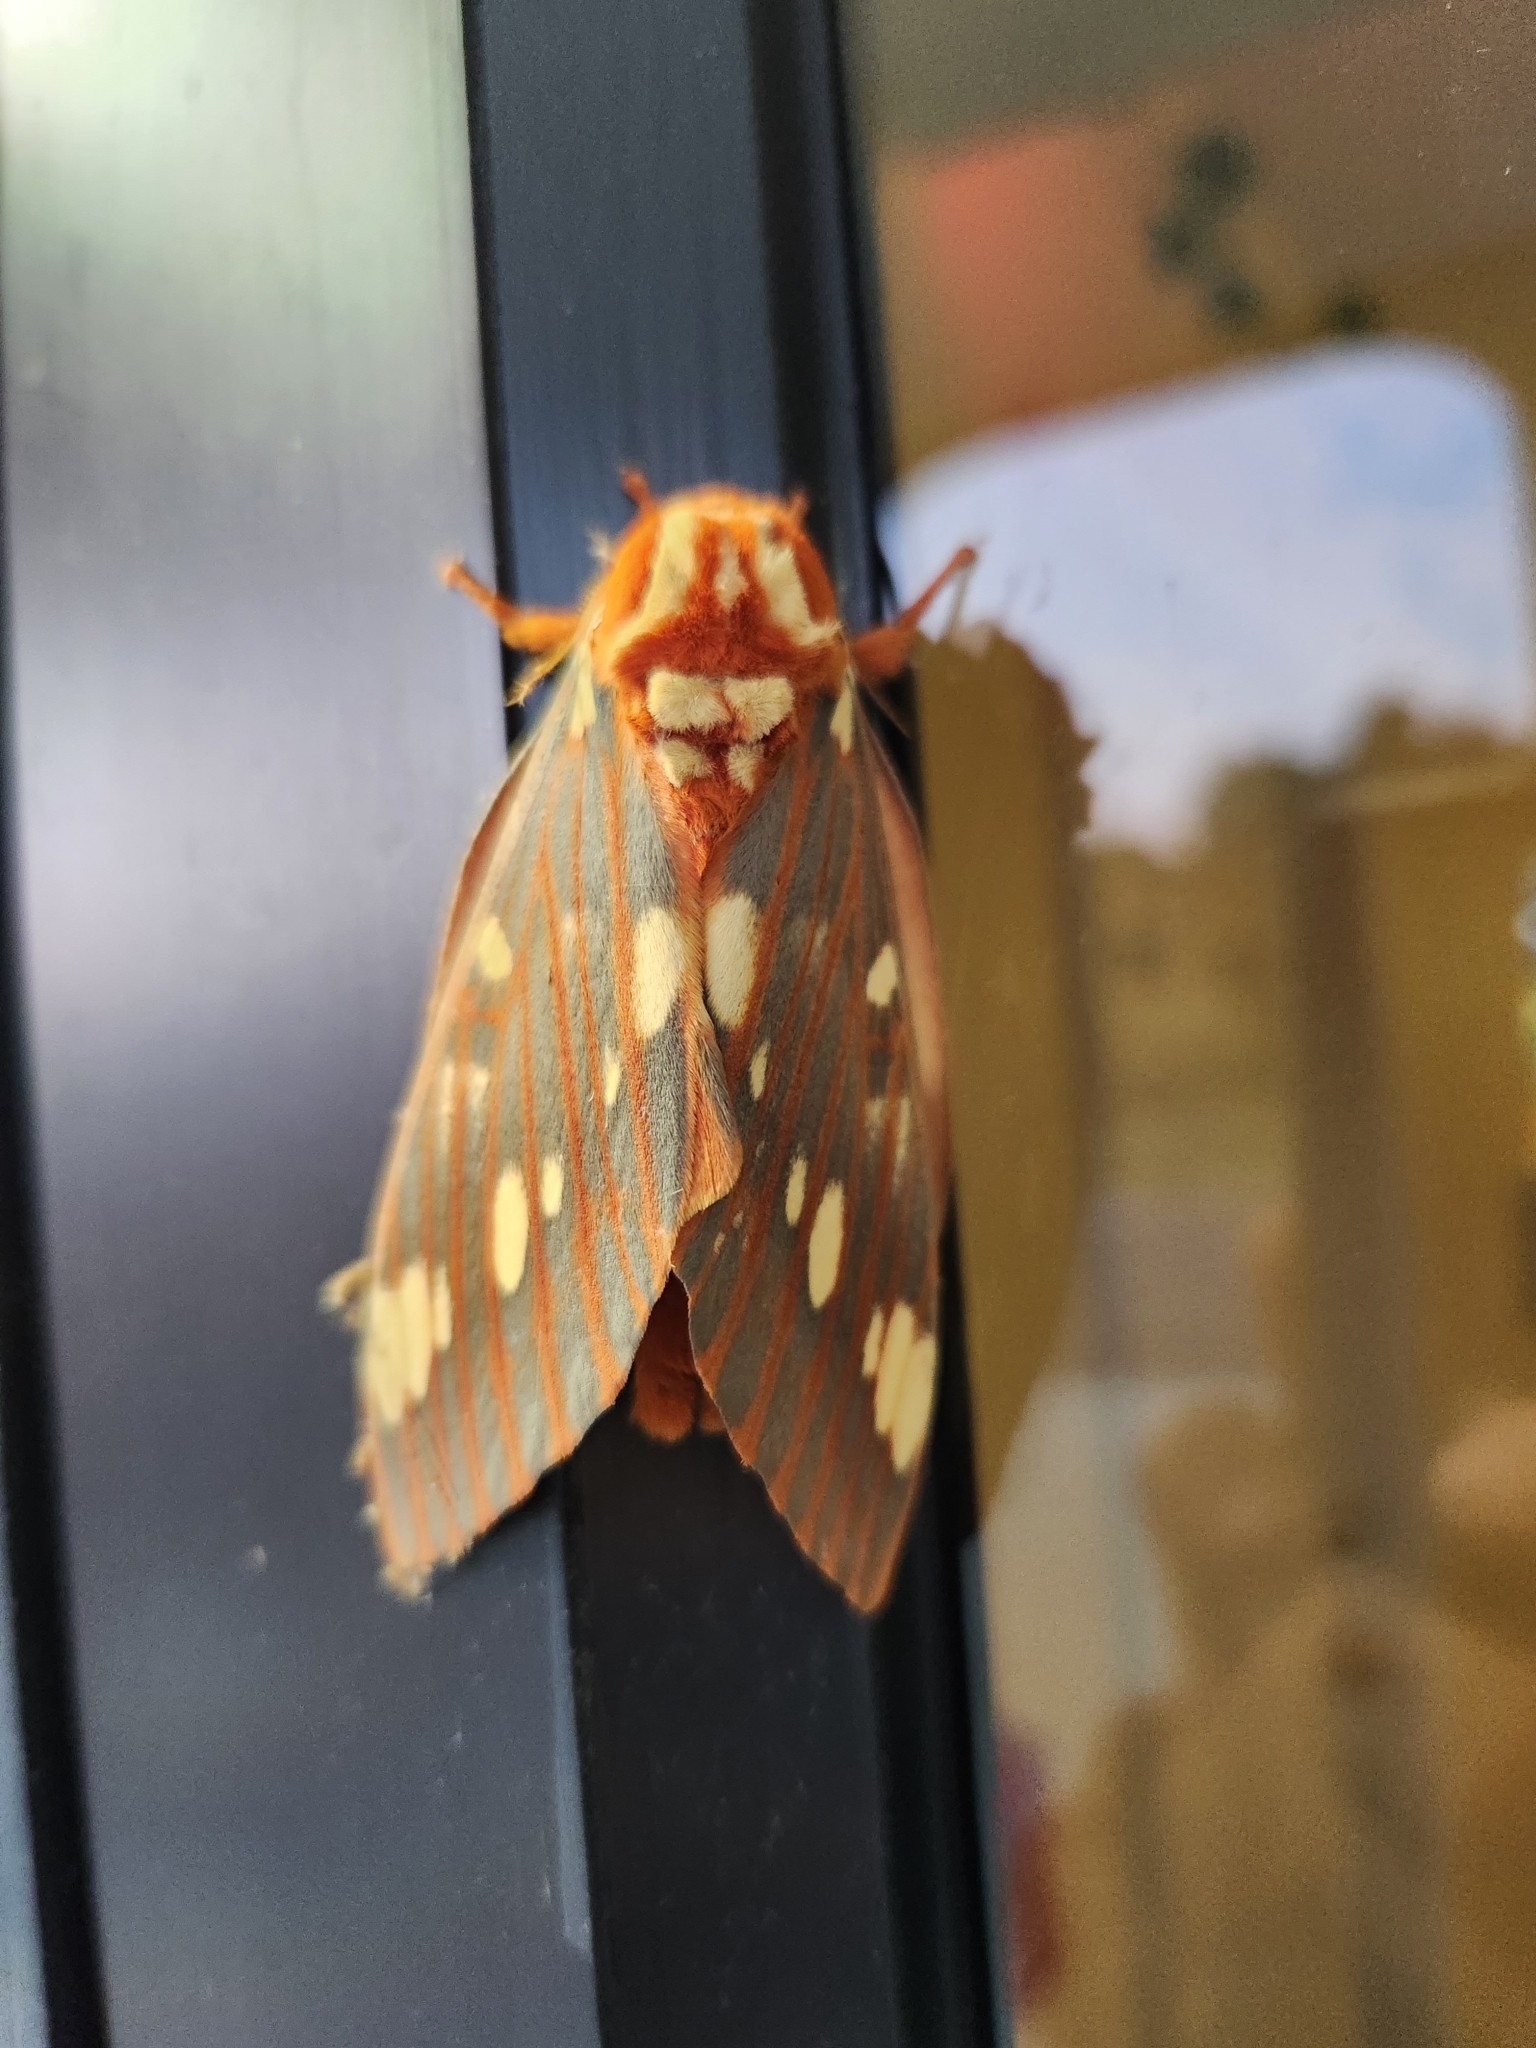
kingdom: Animalia
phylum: Arthropoda
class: Insecta
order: Lepidoptera
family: Saturniidae
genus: Citheronia
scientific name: Citheronia regalis
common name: Hickory horned devil
